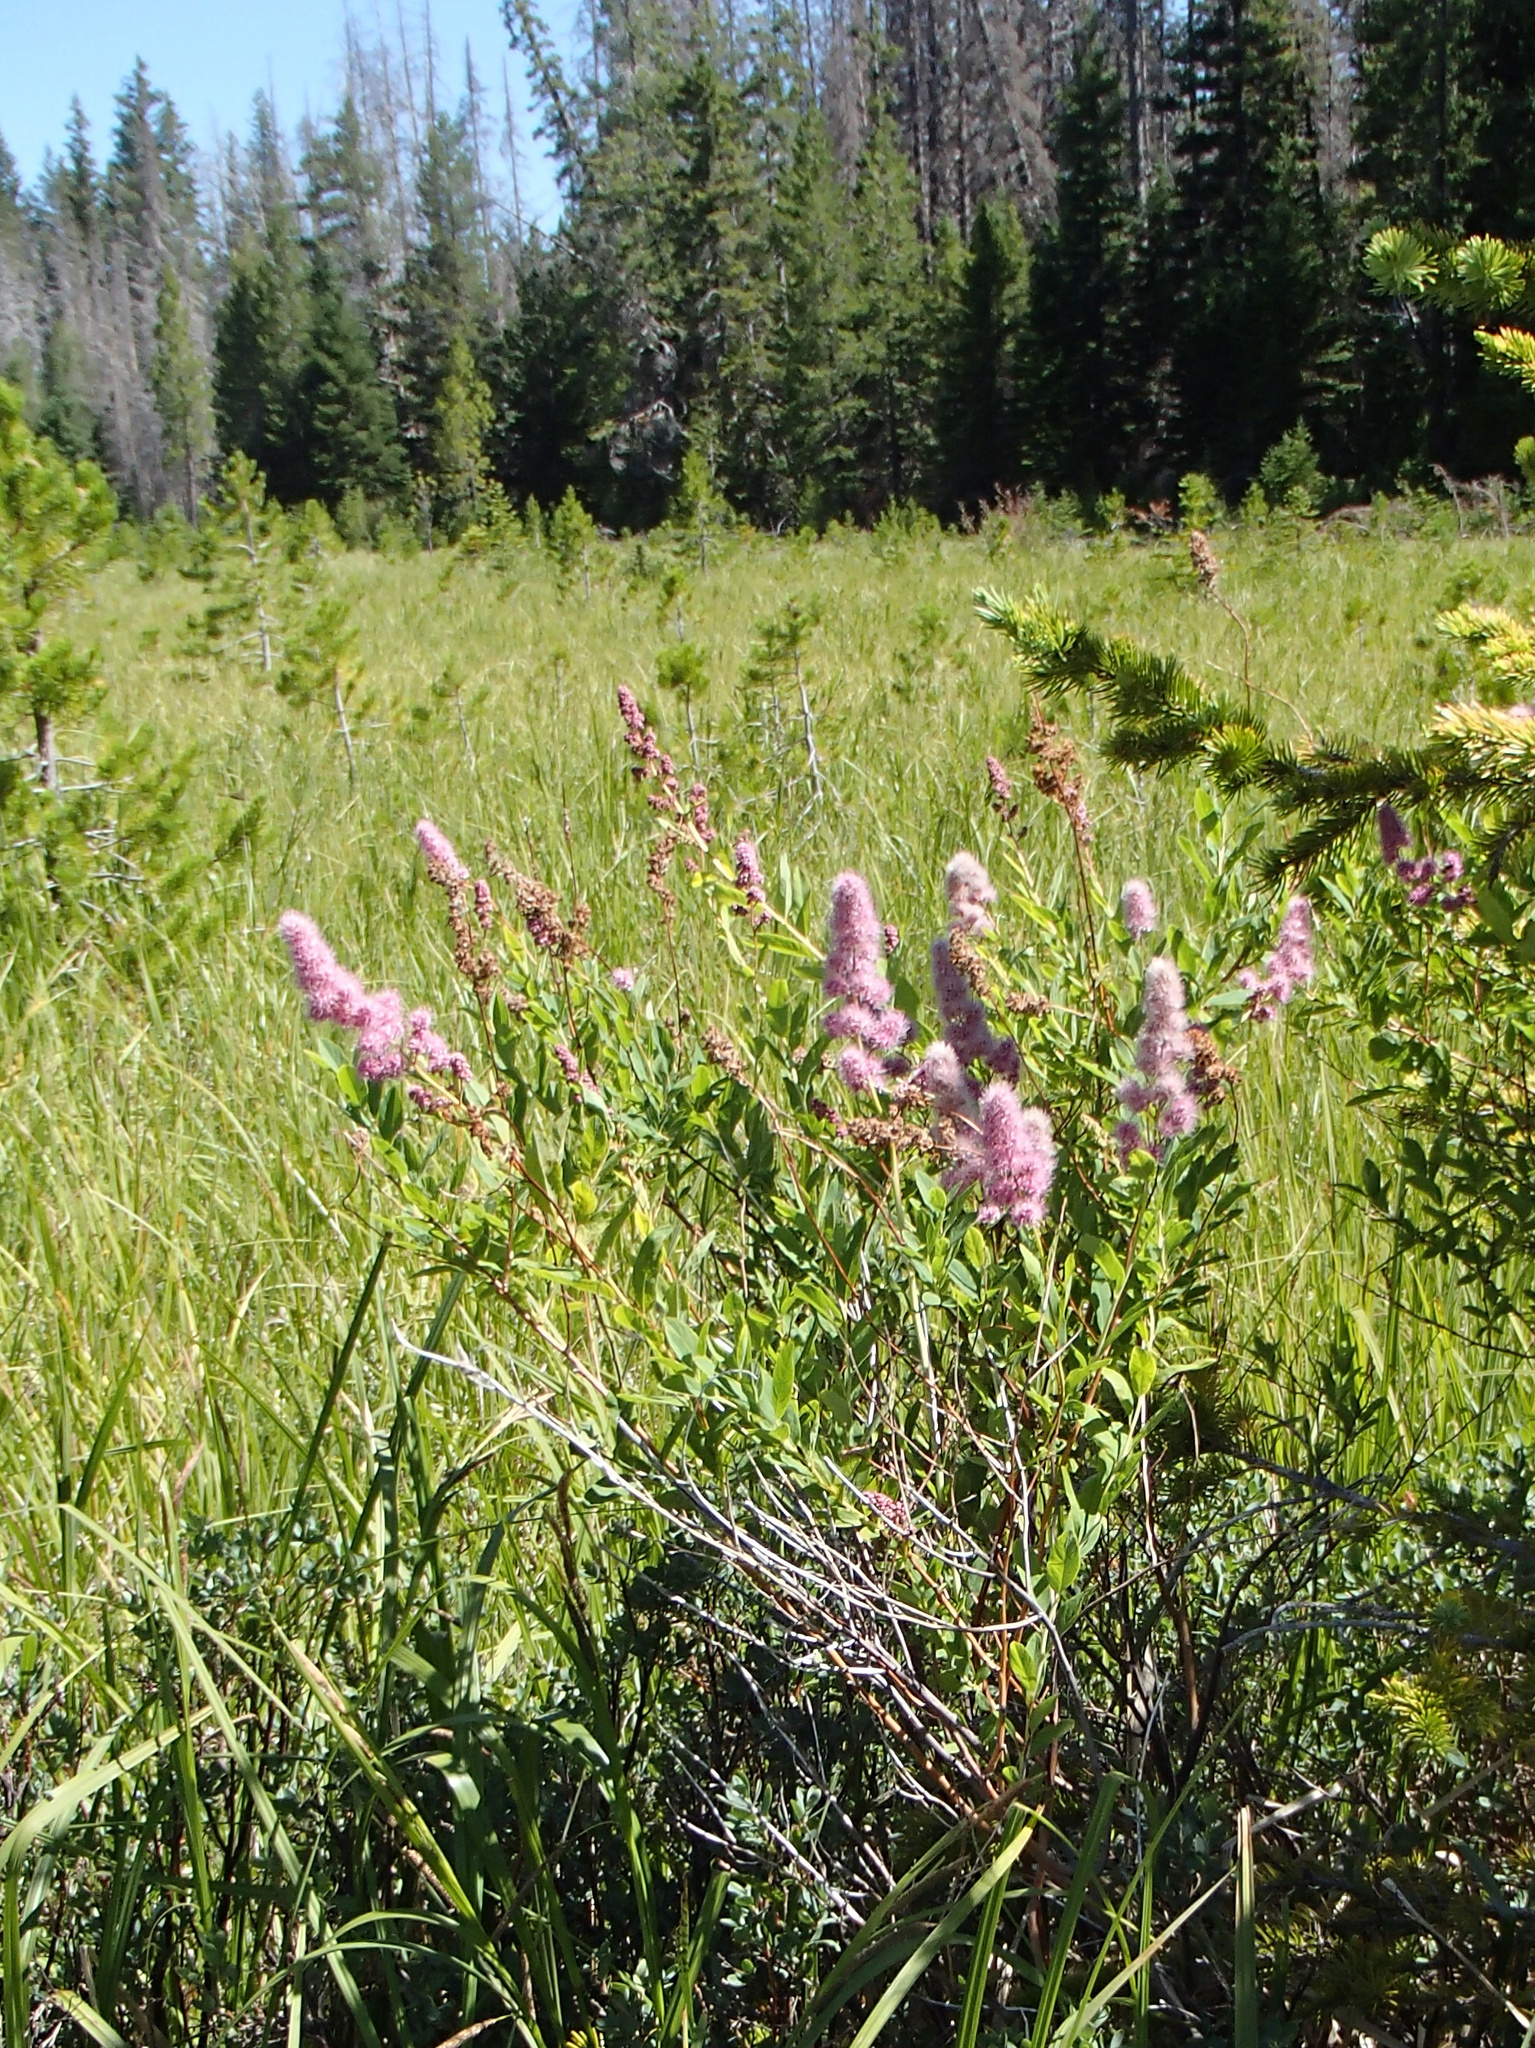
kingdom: Plantae
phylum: Tracheophyta
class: Magnoliopsida
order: Rosales
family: Rosaceae
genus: Spiraea
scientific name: Spiraea douglasii
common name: Steeplebush
